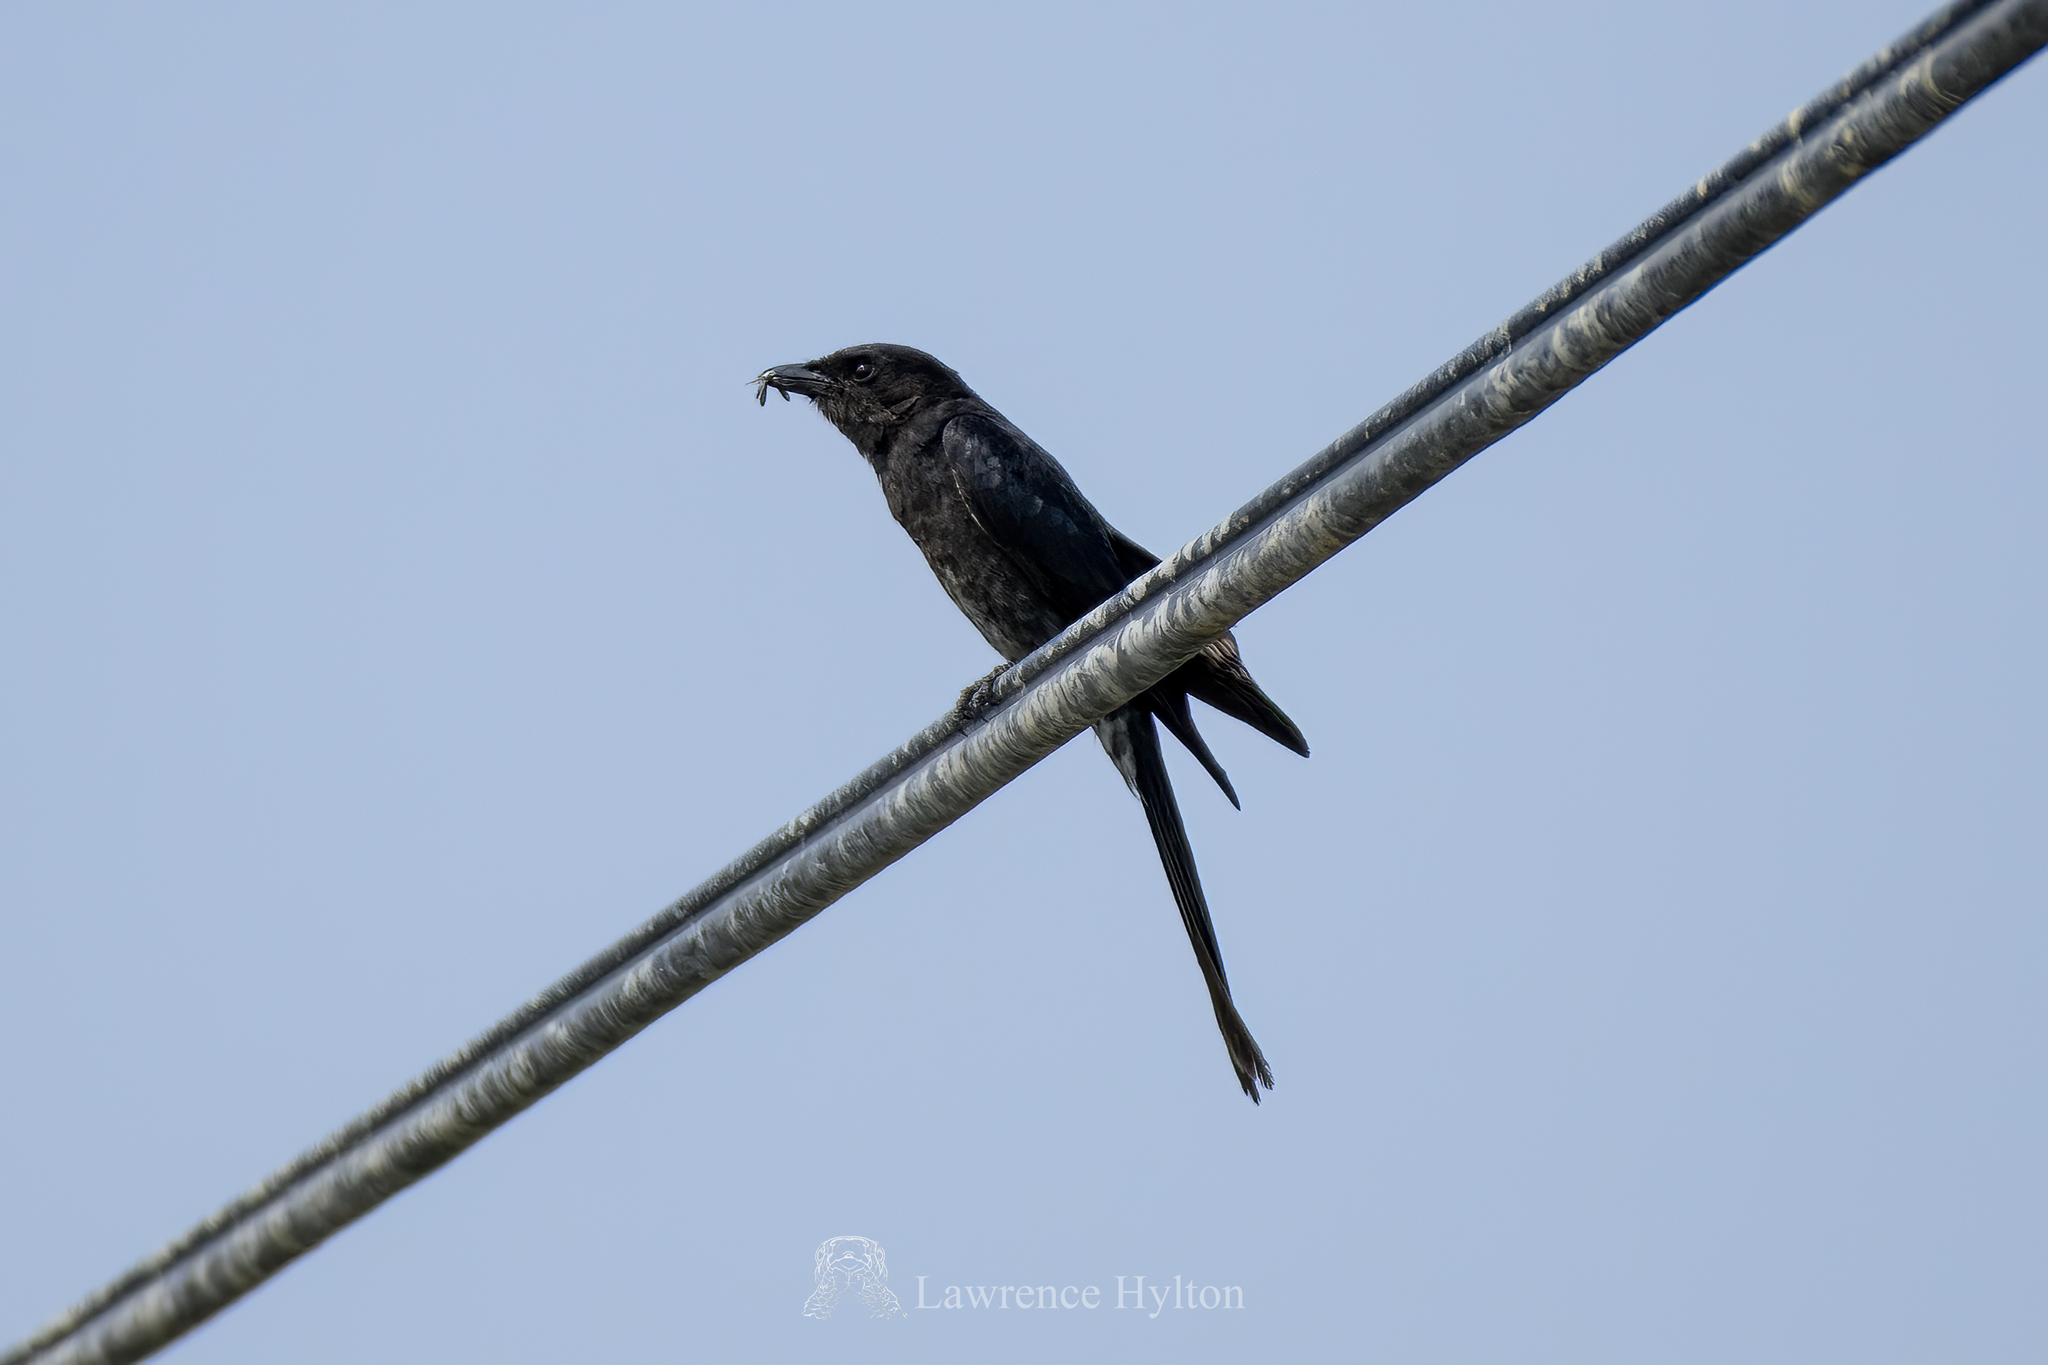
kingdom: Animalia
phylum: Chordata
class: Aves
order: Passeriformes
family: Dicruridae
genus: Dicrurus
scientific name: Dicrurus macrocercus
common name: Black drongo
